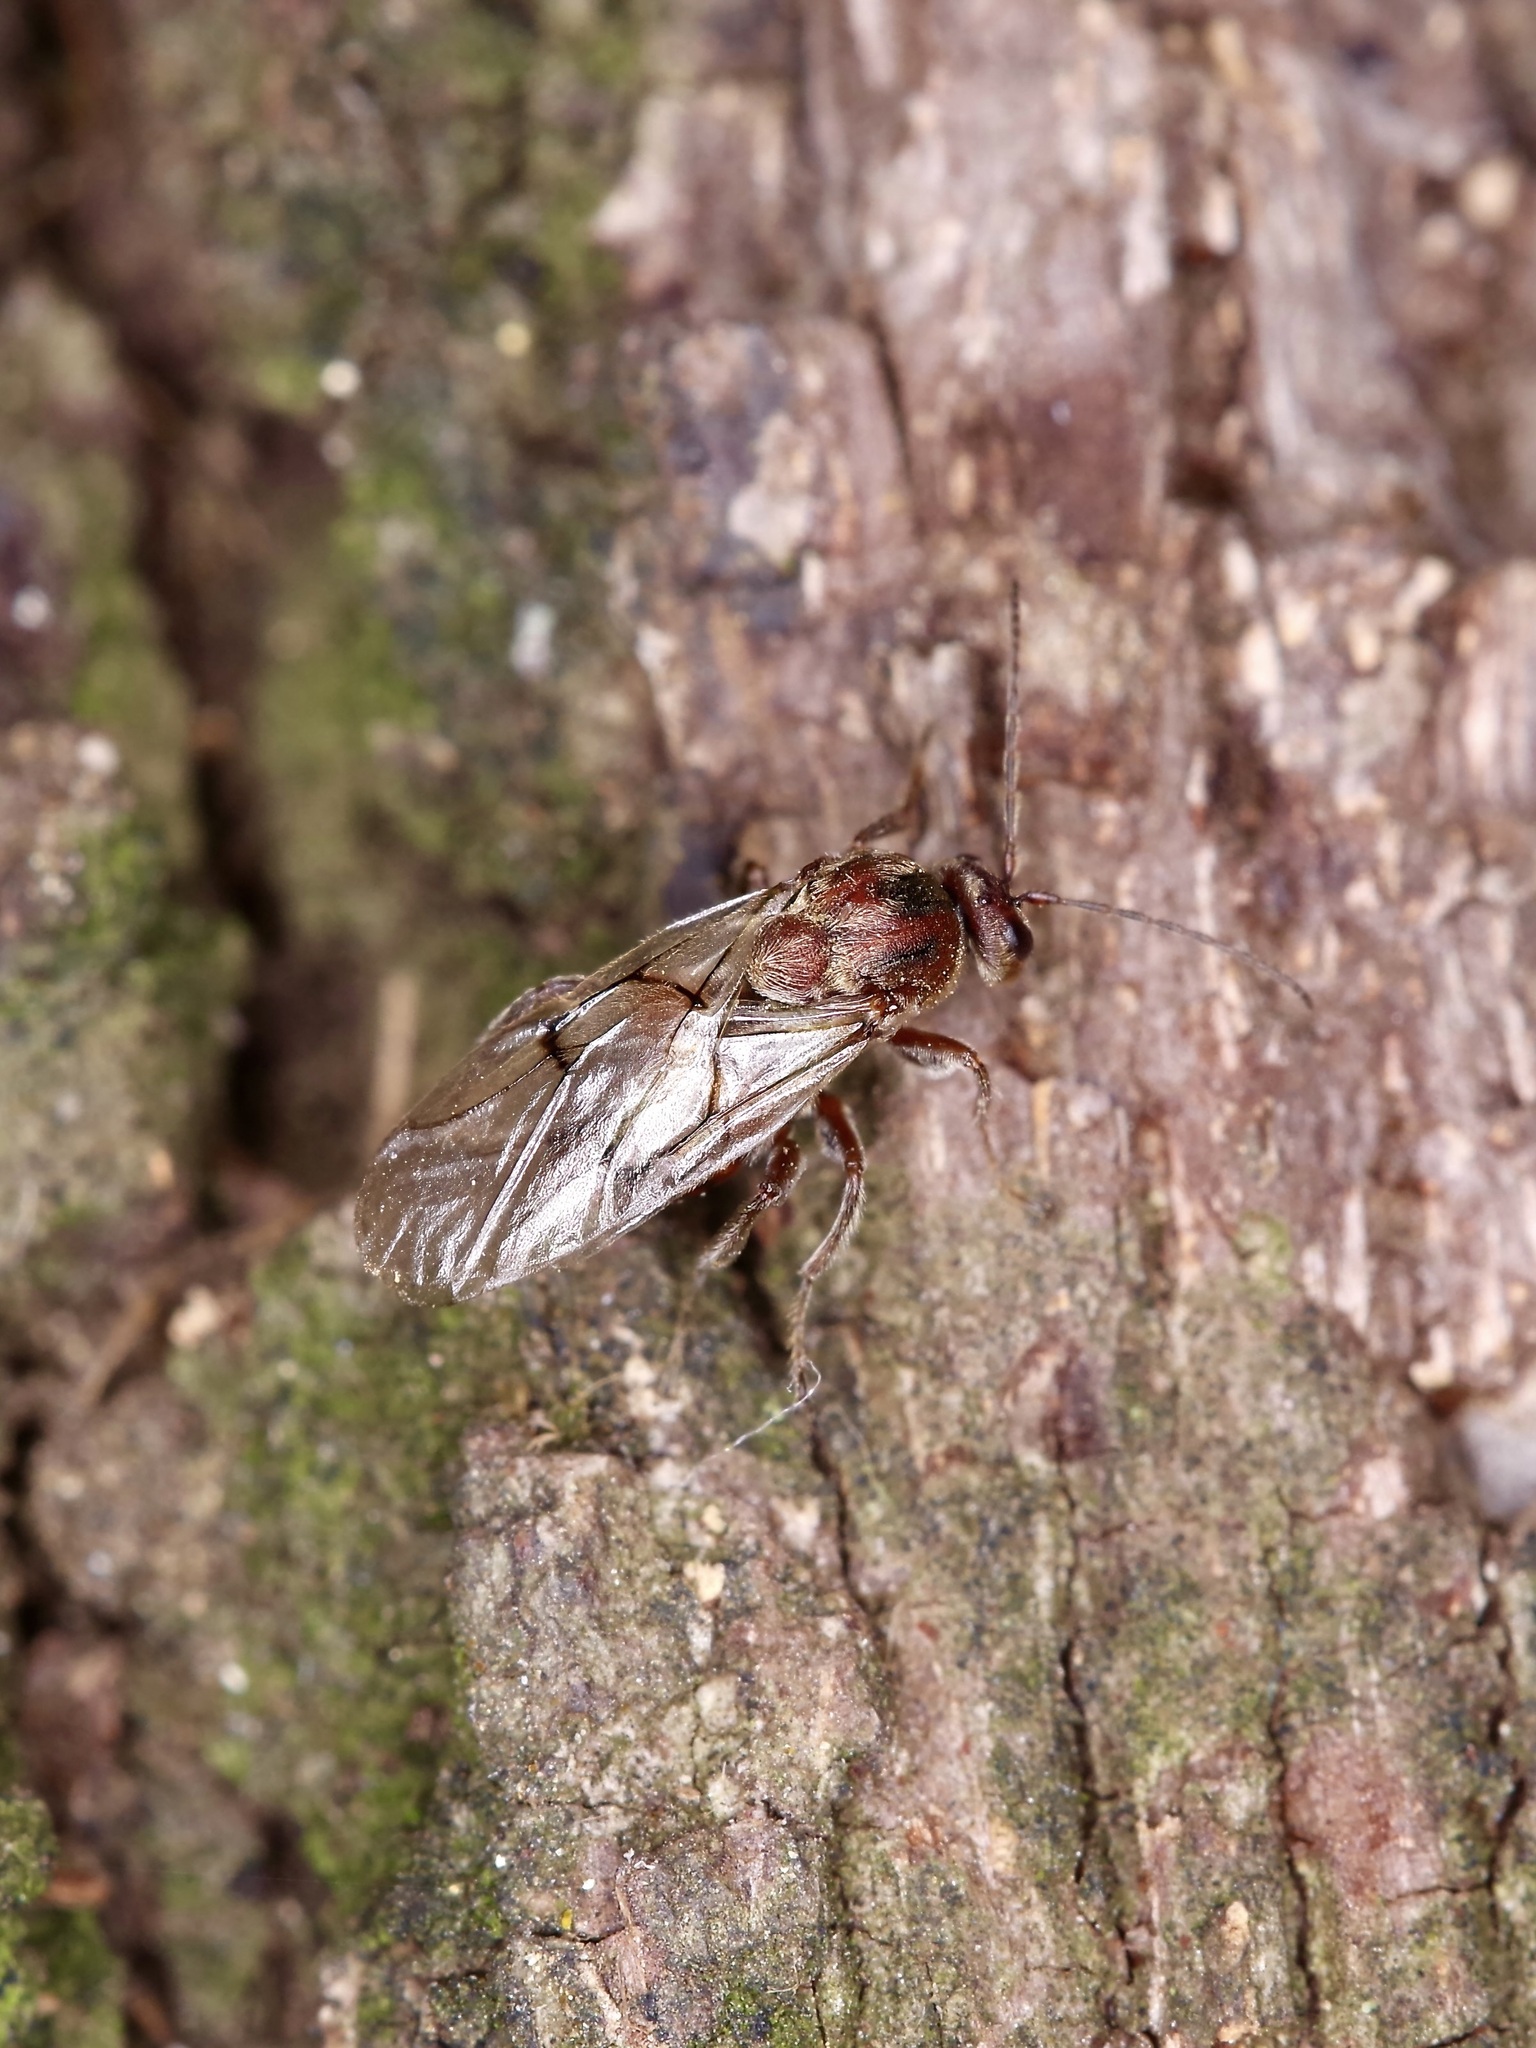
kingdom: Animalia
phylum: Arthropoda
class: Insecta
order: Hymenoptera
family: Cynipidae
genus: Disholcaspis
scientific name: Disholcaspis
